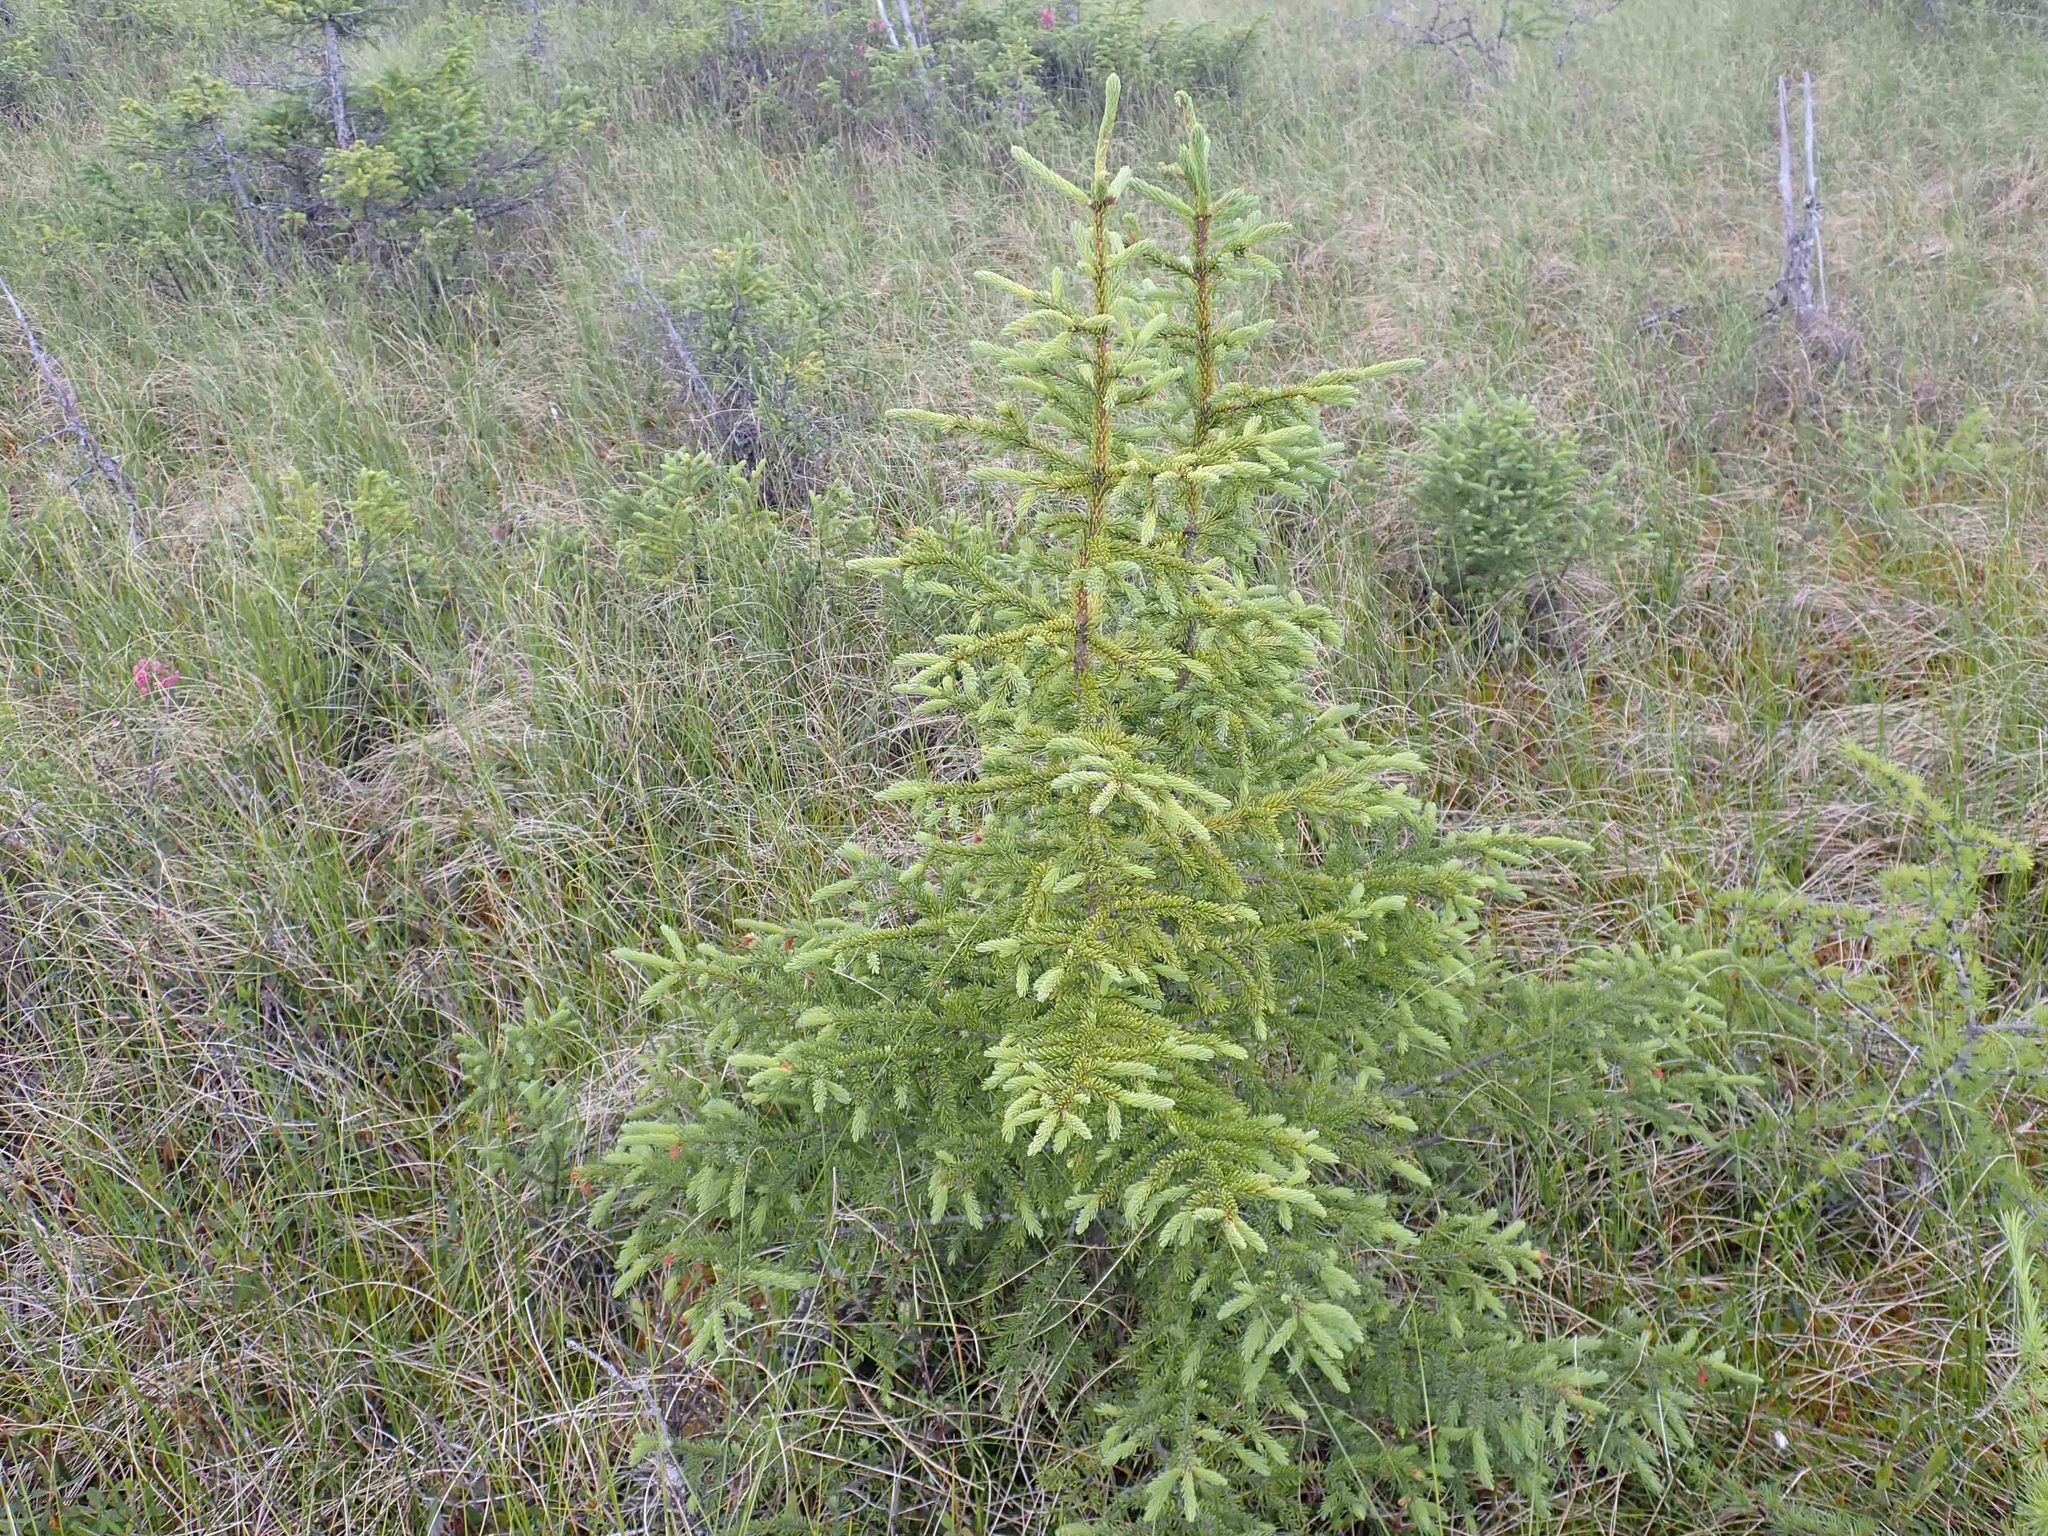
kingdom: Plantae
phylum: Tracheophyta
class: Pinopsida
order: Pinales
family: Pinaceae
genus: Picea
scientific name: Picea mariana
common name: Black spruce
